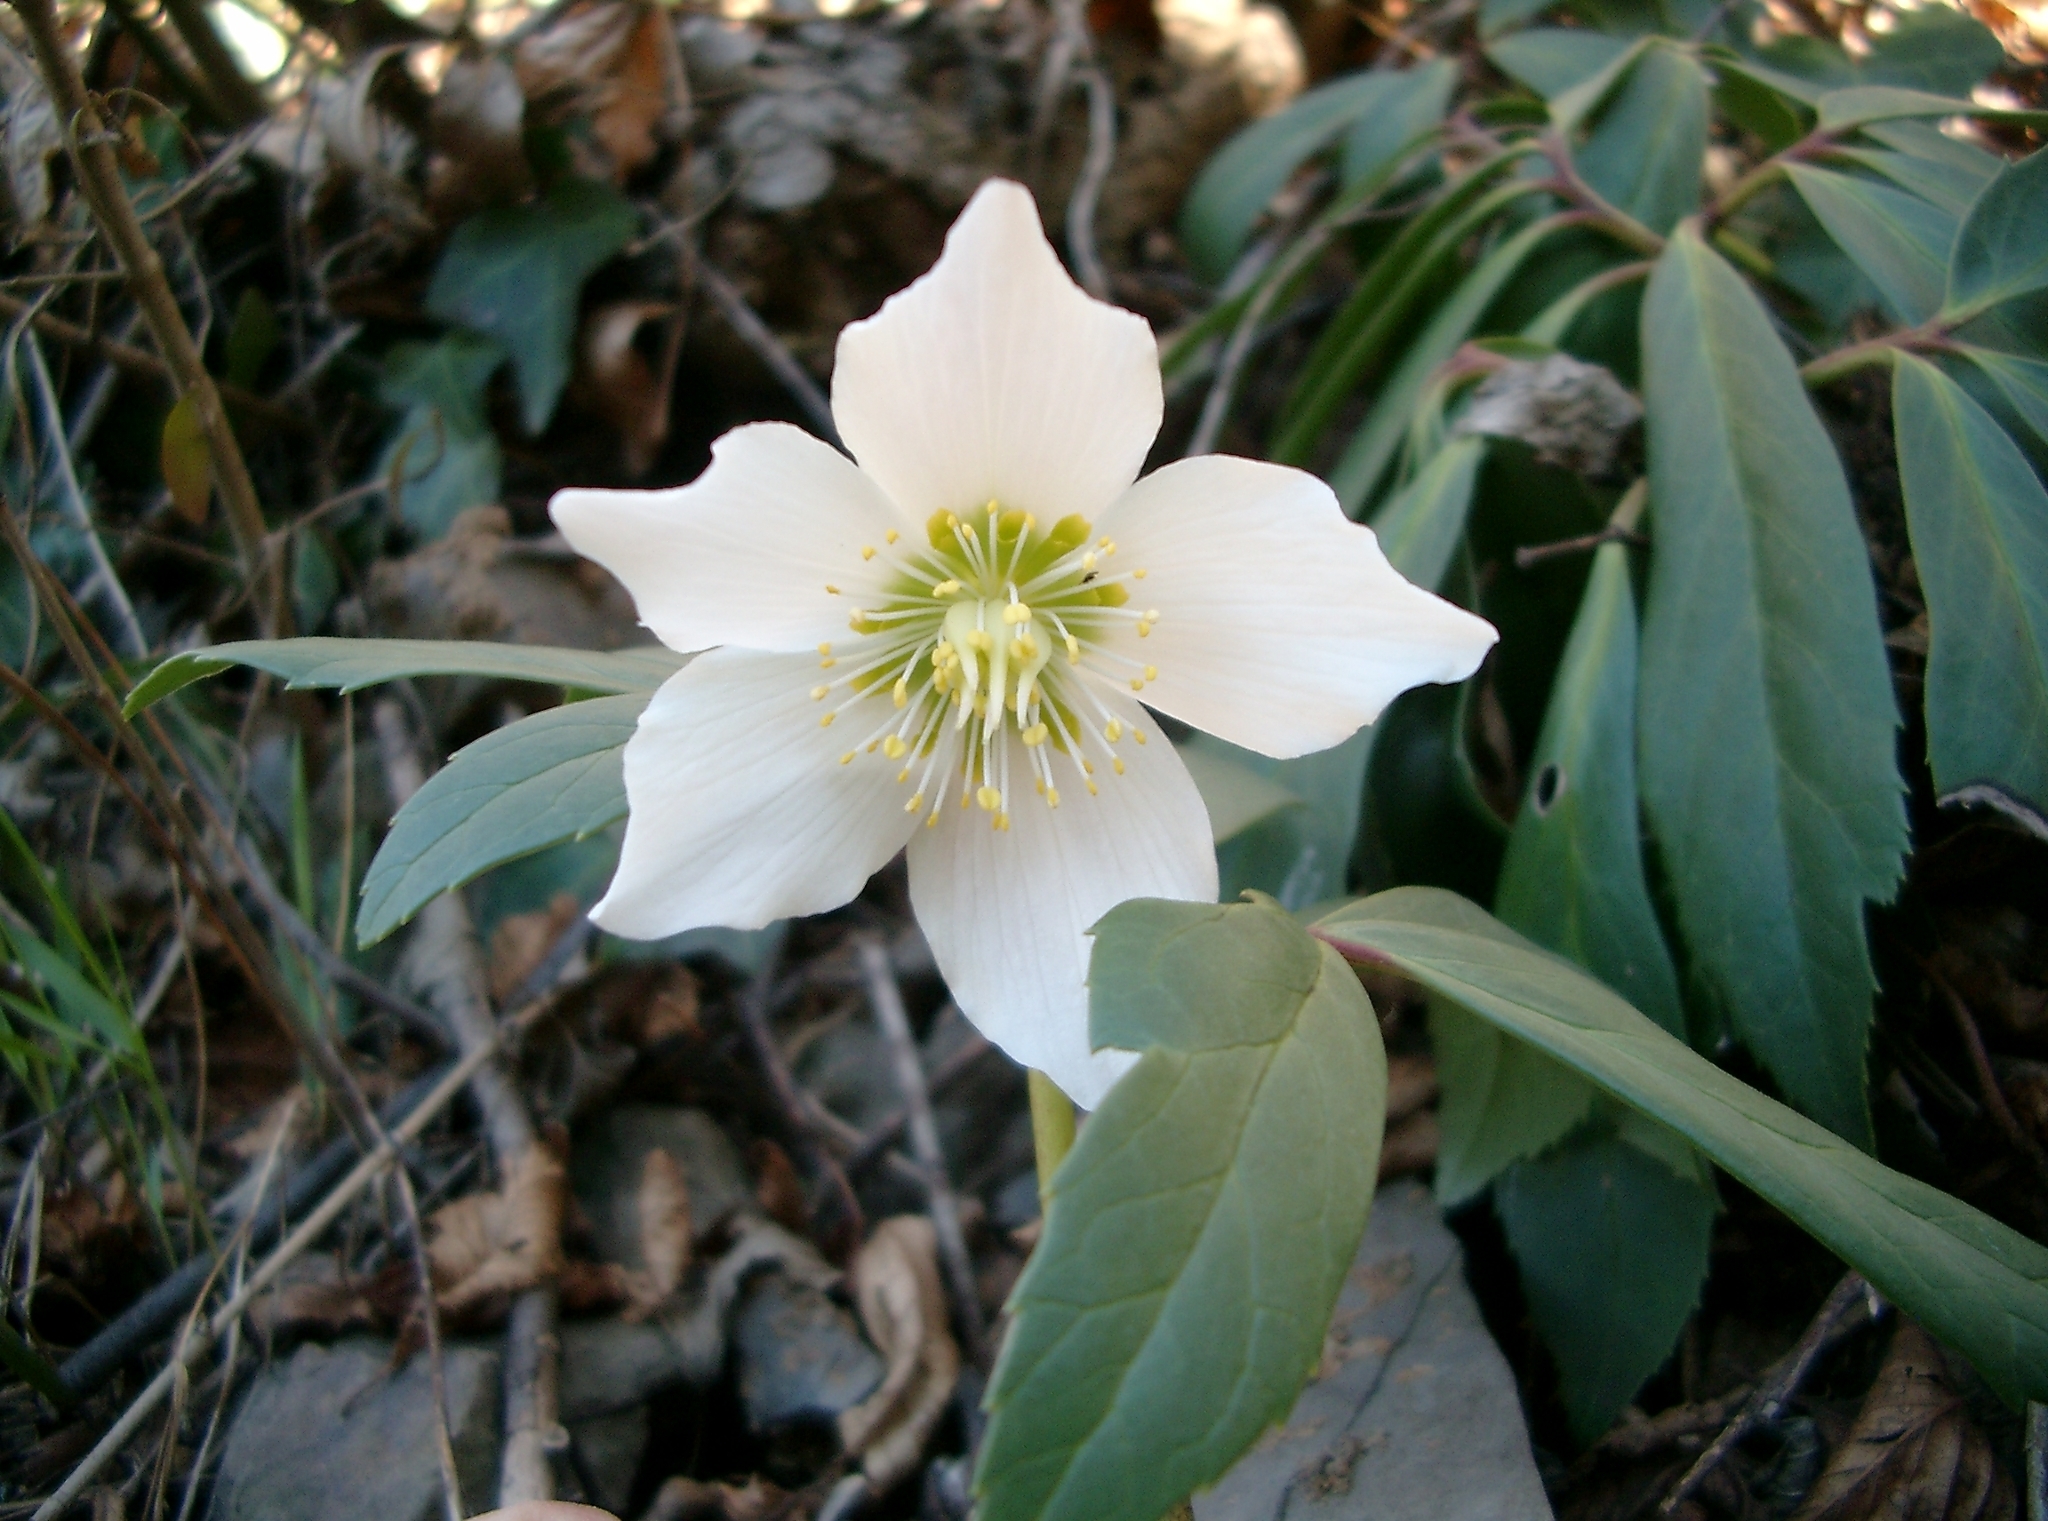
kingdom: Plantae
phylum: Tracheophyta
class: Magnoliopsida
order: Ranunculales
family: Ranunculaceae
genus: Helleborus
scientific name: Helleborus niger
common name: Black hellebore
